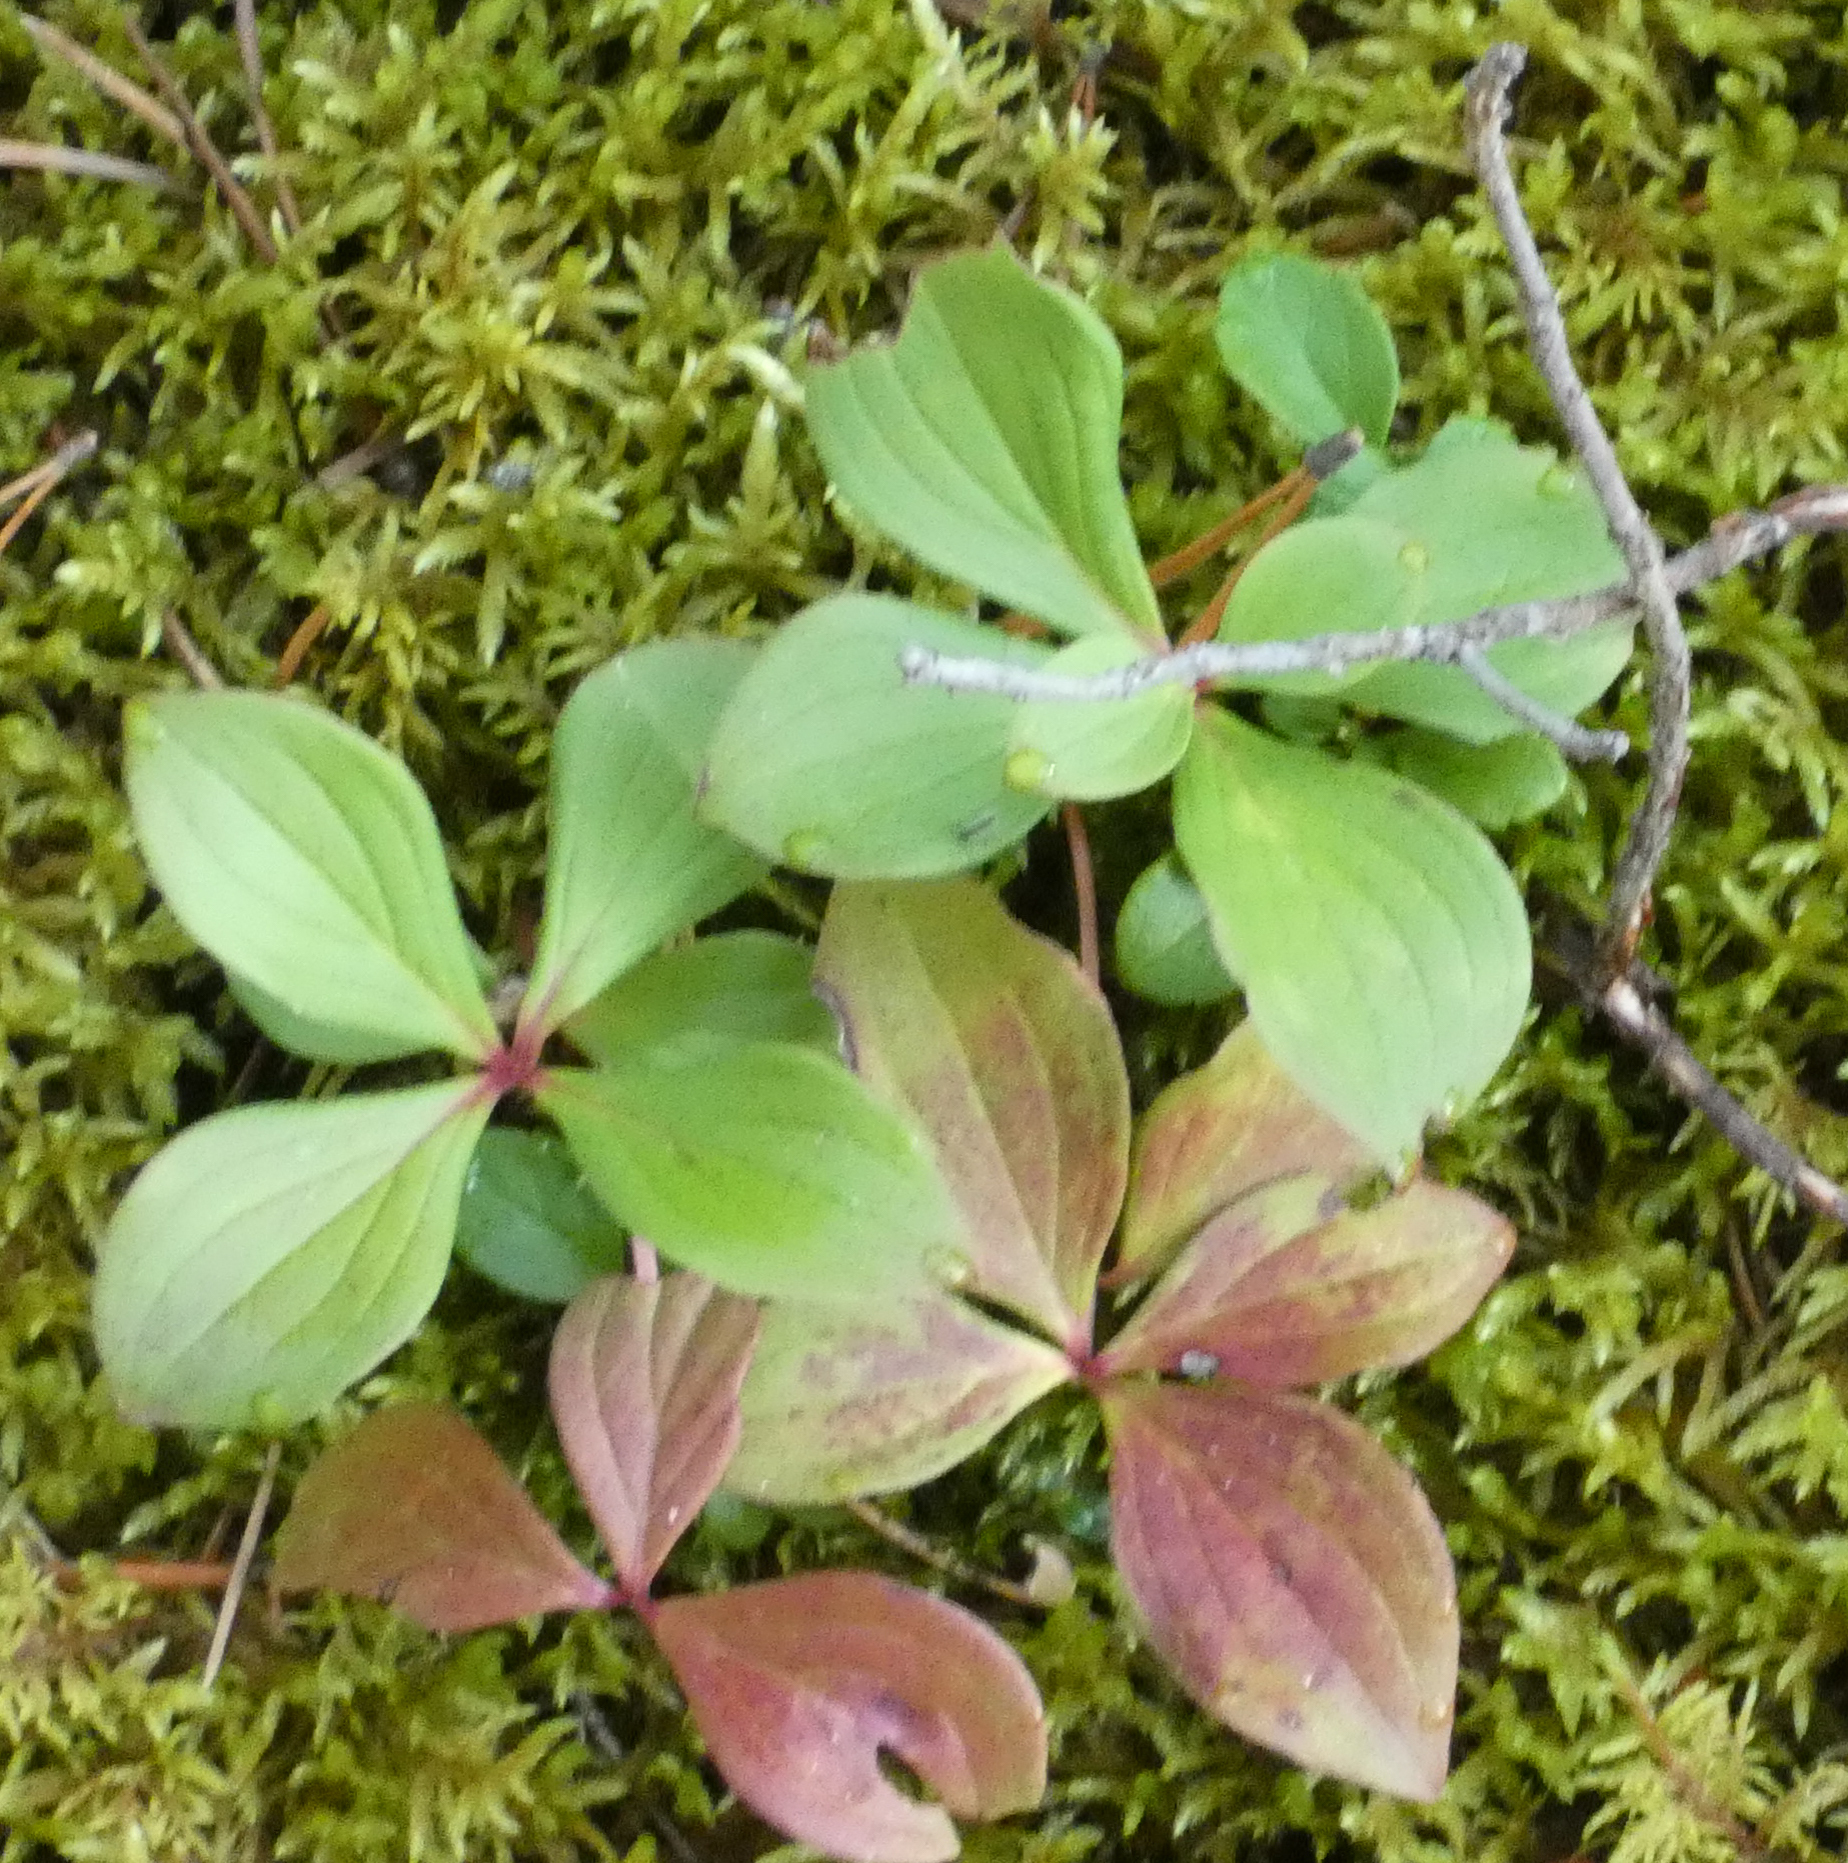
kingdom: Plantae
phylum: Tracheophyta
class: Magnoliopsida
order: Cornales
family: Cornaceae
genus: Cornus
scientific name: Cornus canadensis
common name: Creeping dogwood
